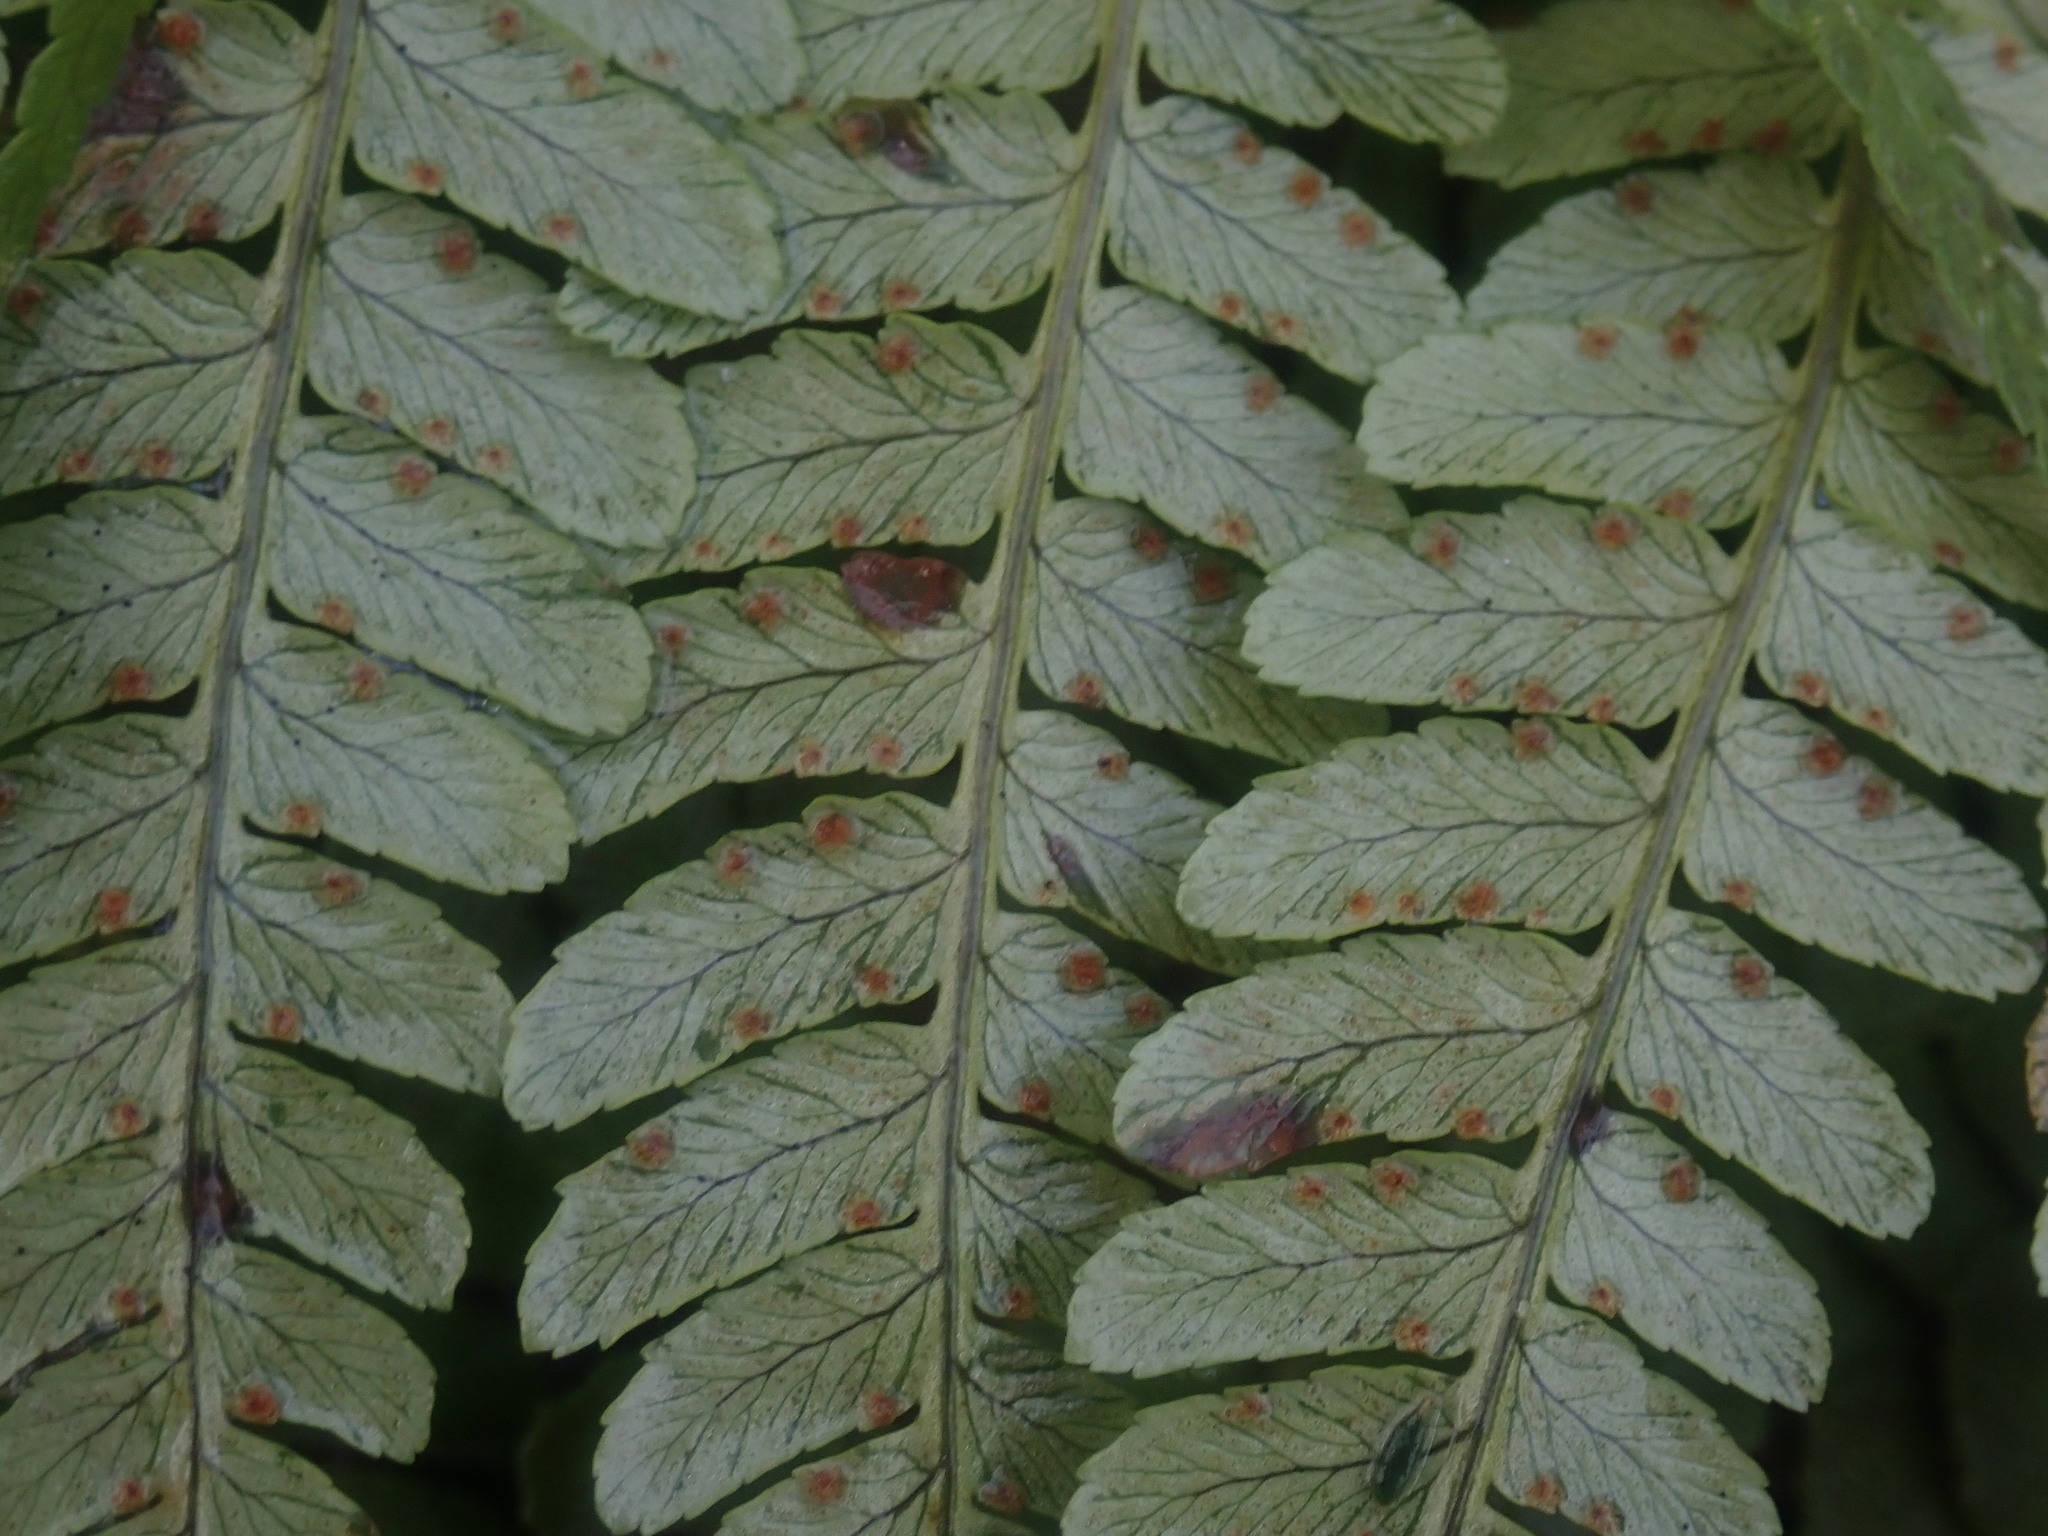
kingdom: Plantae
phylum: Tracheophyta
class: Polypodiopsida
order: Polypodiales
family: Dryopteridaceae
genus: Dryopteris
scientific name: Dryopteris marginalis
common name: Marginal wood fern
